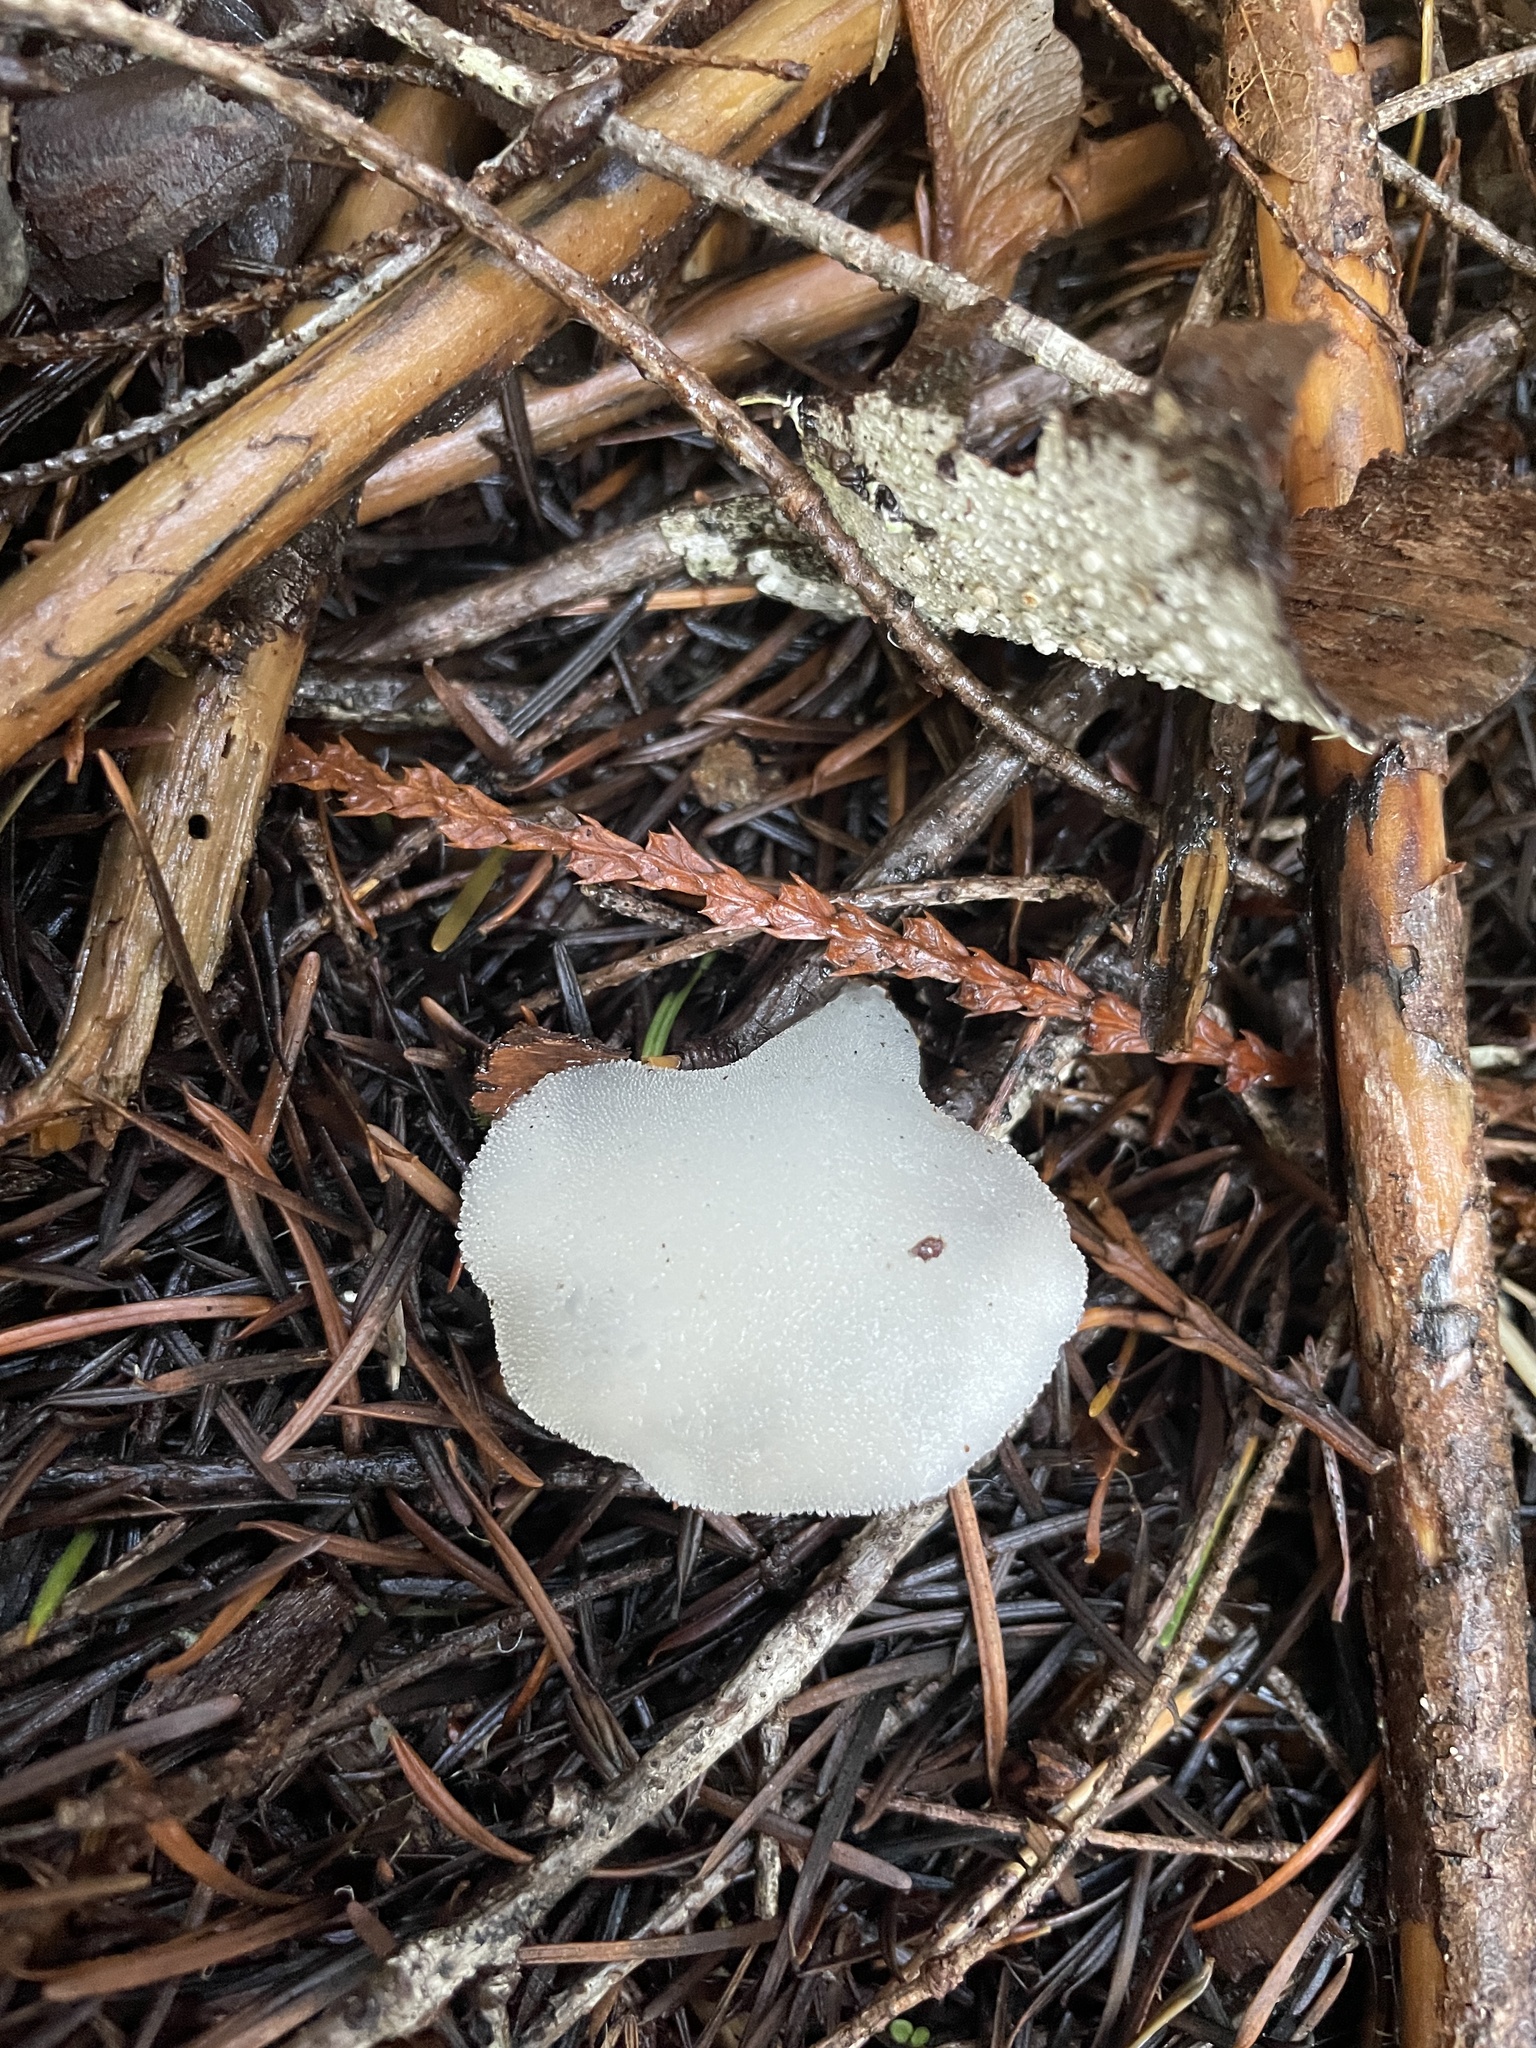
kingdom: Fungi
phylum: Basidiomycota
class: Agaricomycetes
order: Auriculariales
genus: Pseudohydnum
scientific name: Pseudohydnum gelatinosum
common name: Jelly tongue
